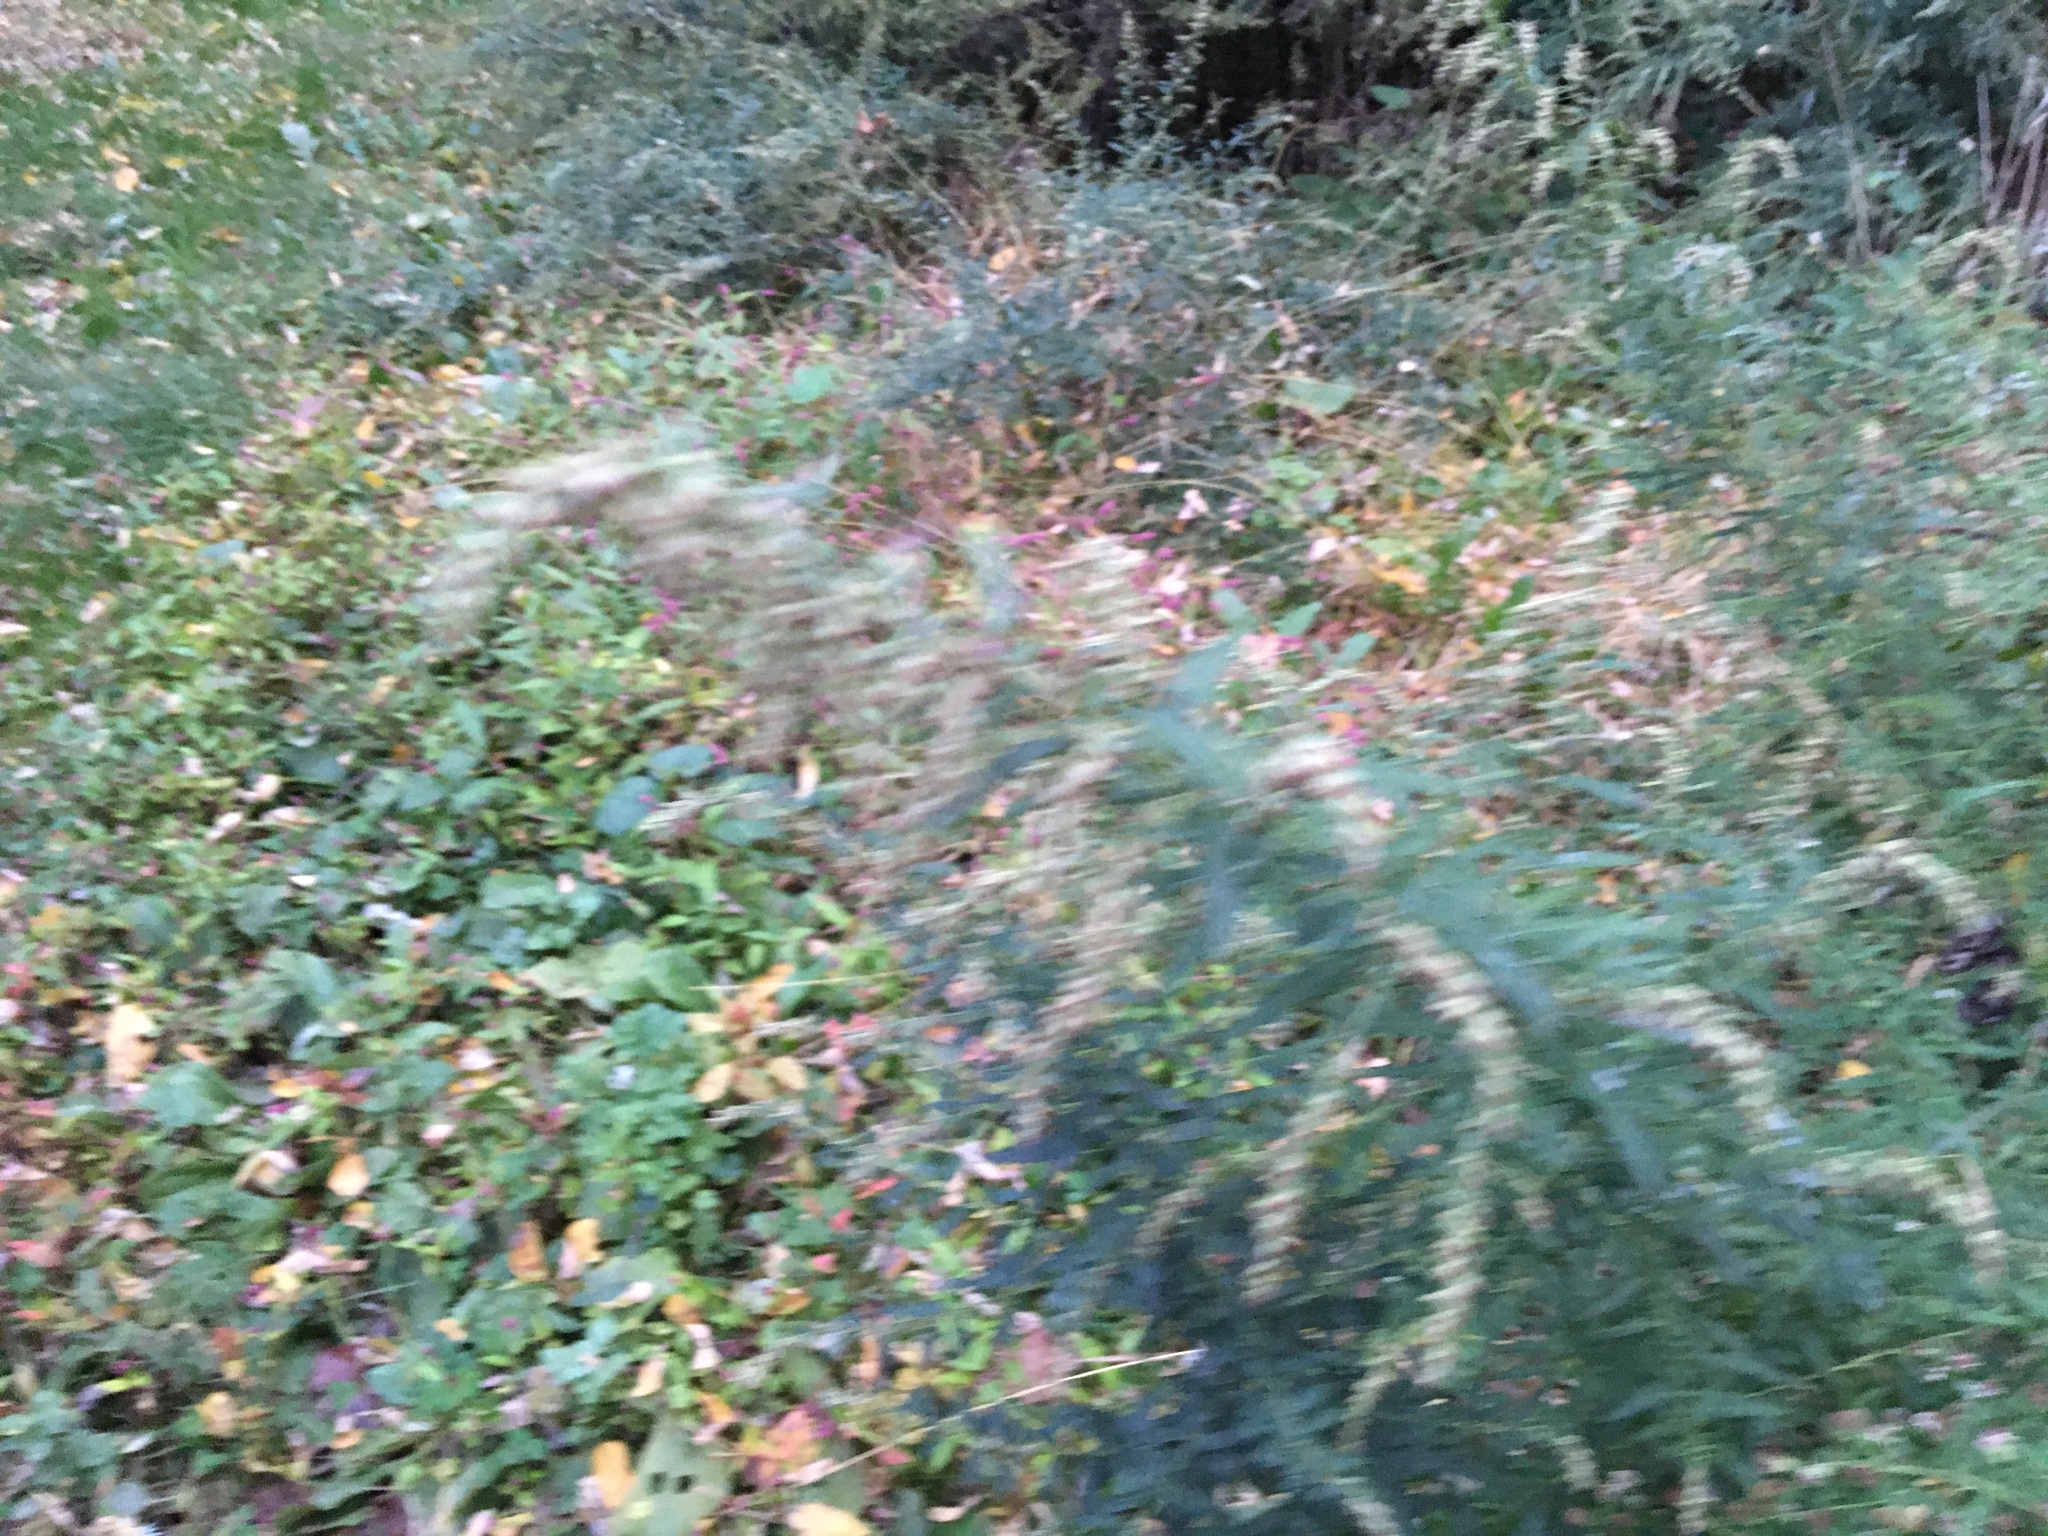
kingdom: Plantae
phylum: Tracheophyta
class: Magnoliopsida
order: Asterales
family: Asteraceae
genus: Artemisia
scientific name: Artemisia vulgaris
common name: Mugwort
